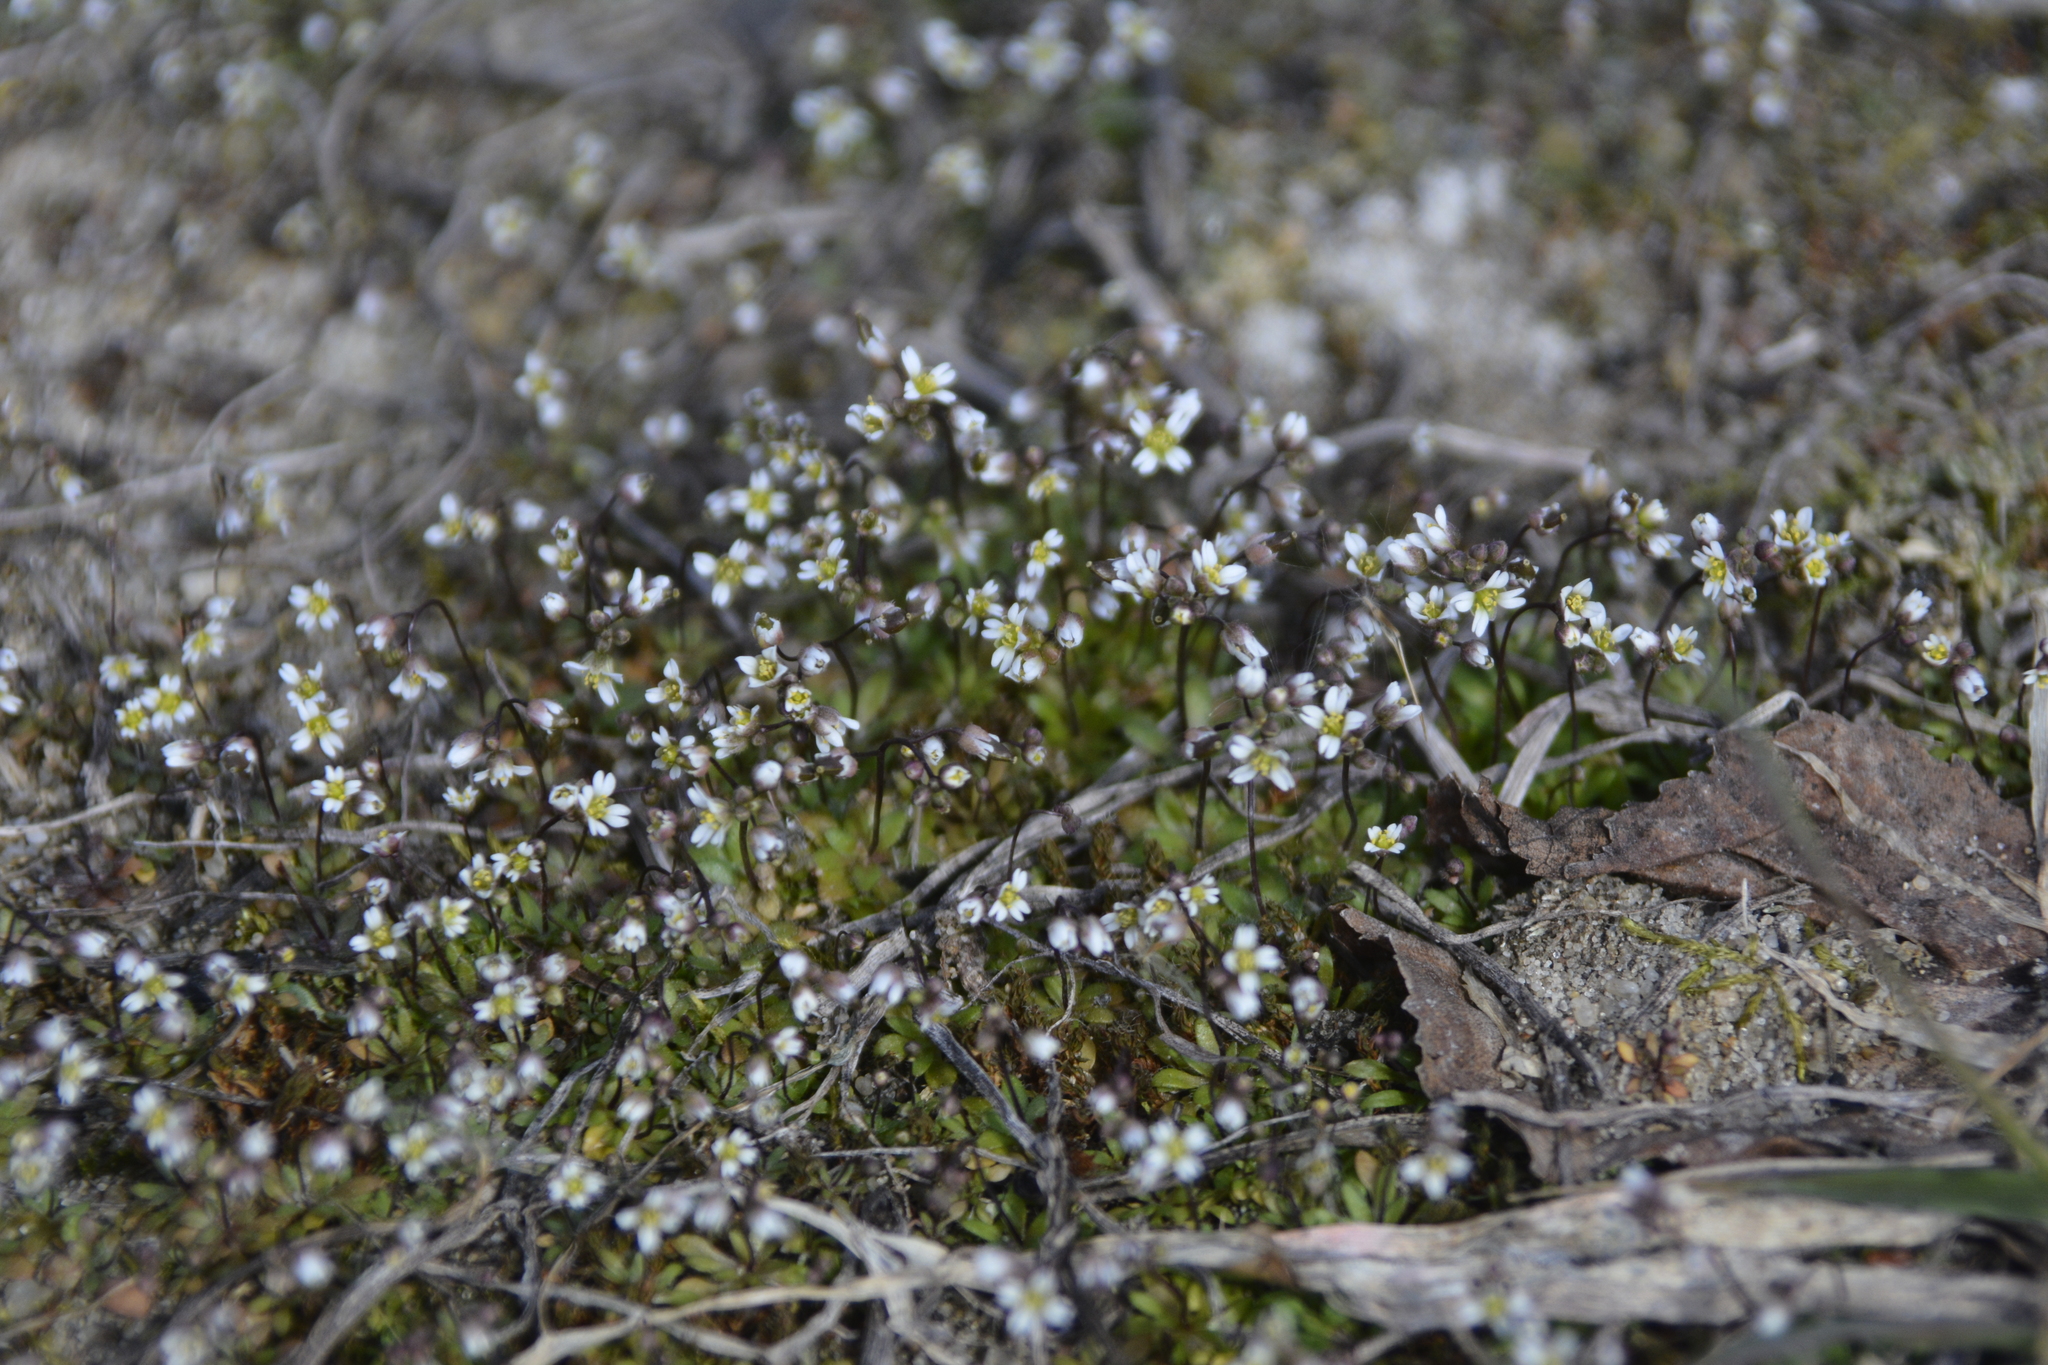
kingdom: Plantae
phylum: Tracheophyta
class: Magnoliopsida
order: Brassicales
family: Brassicaceae
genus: Draba
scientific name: Draba verna
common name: Spring draba
